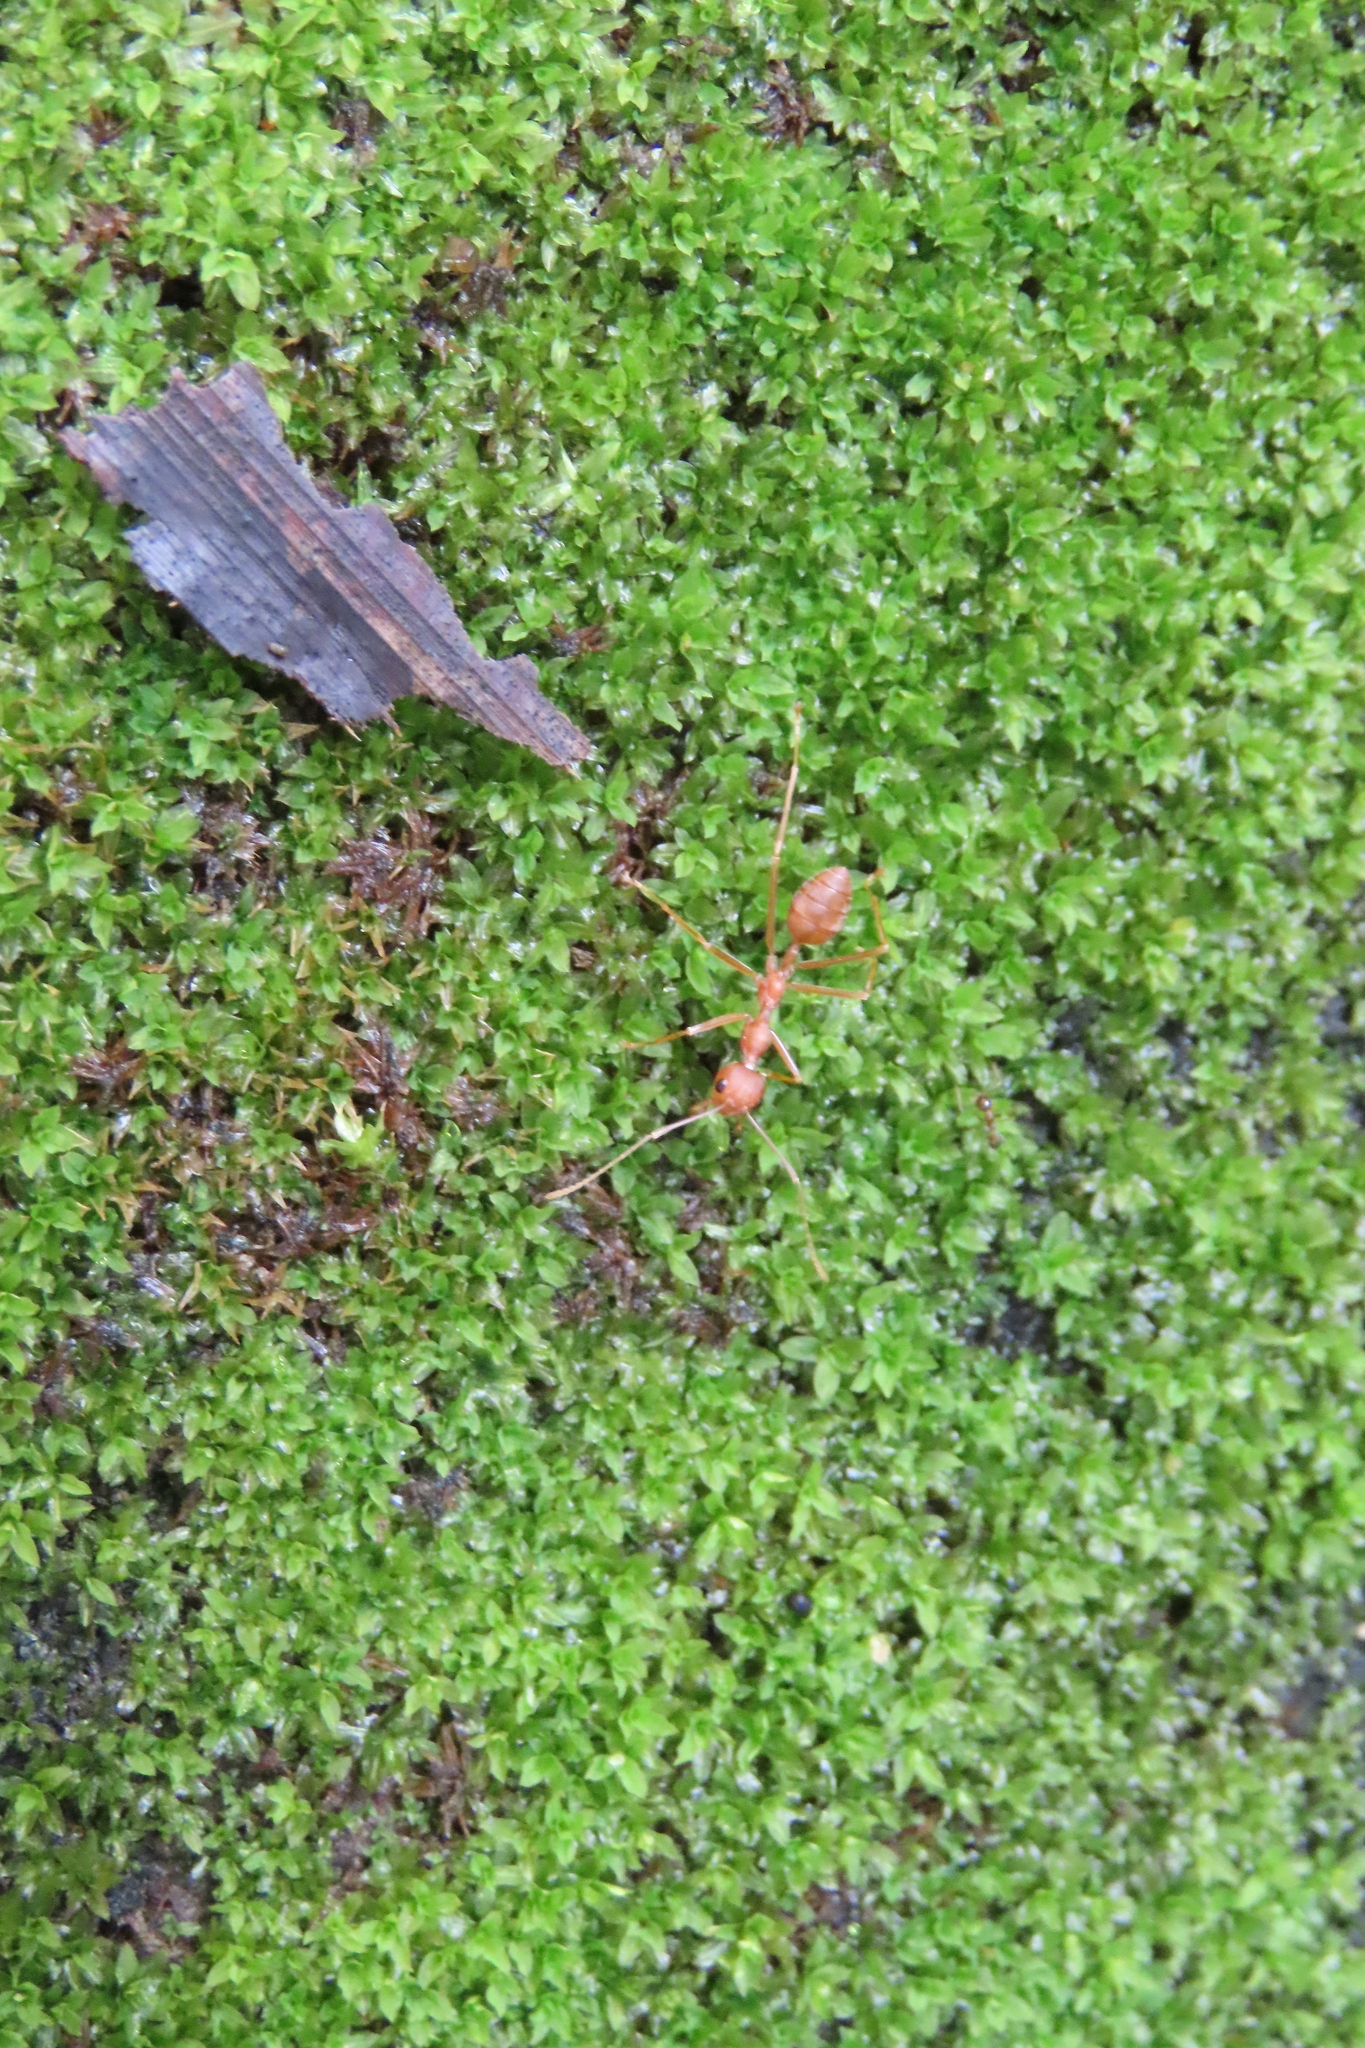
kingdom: Animalia
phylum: Arthropoda
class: Insecta
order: Hymenoptera
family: Formicidae
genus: Oecophylla
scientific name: Oecophylla smaragdina
